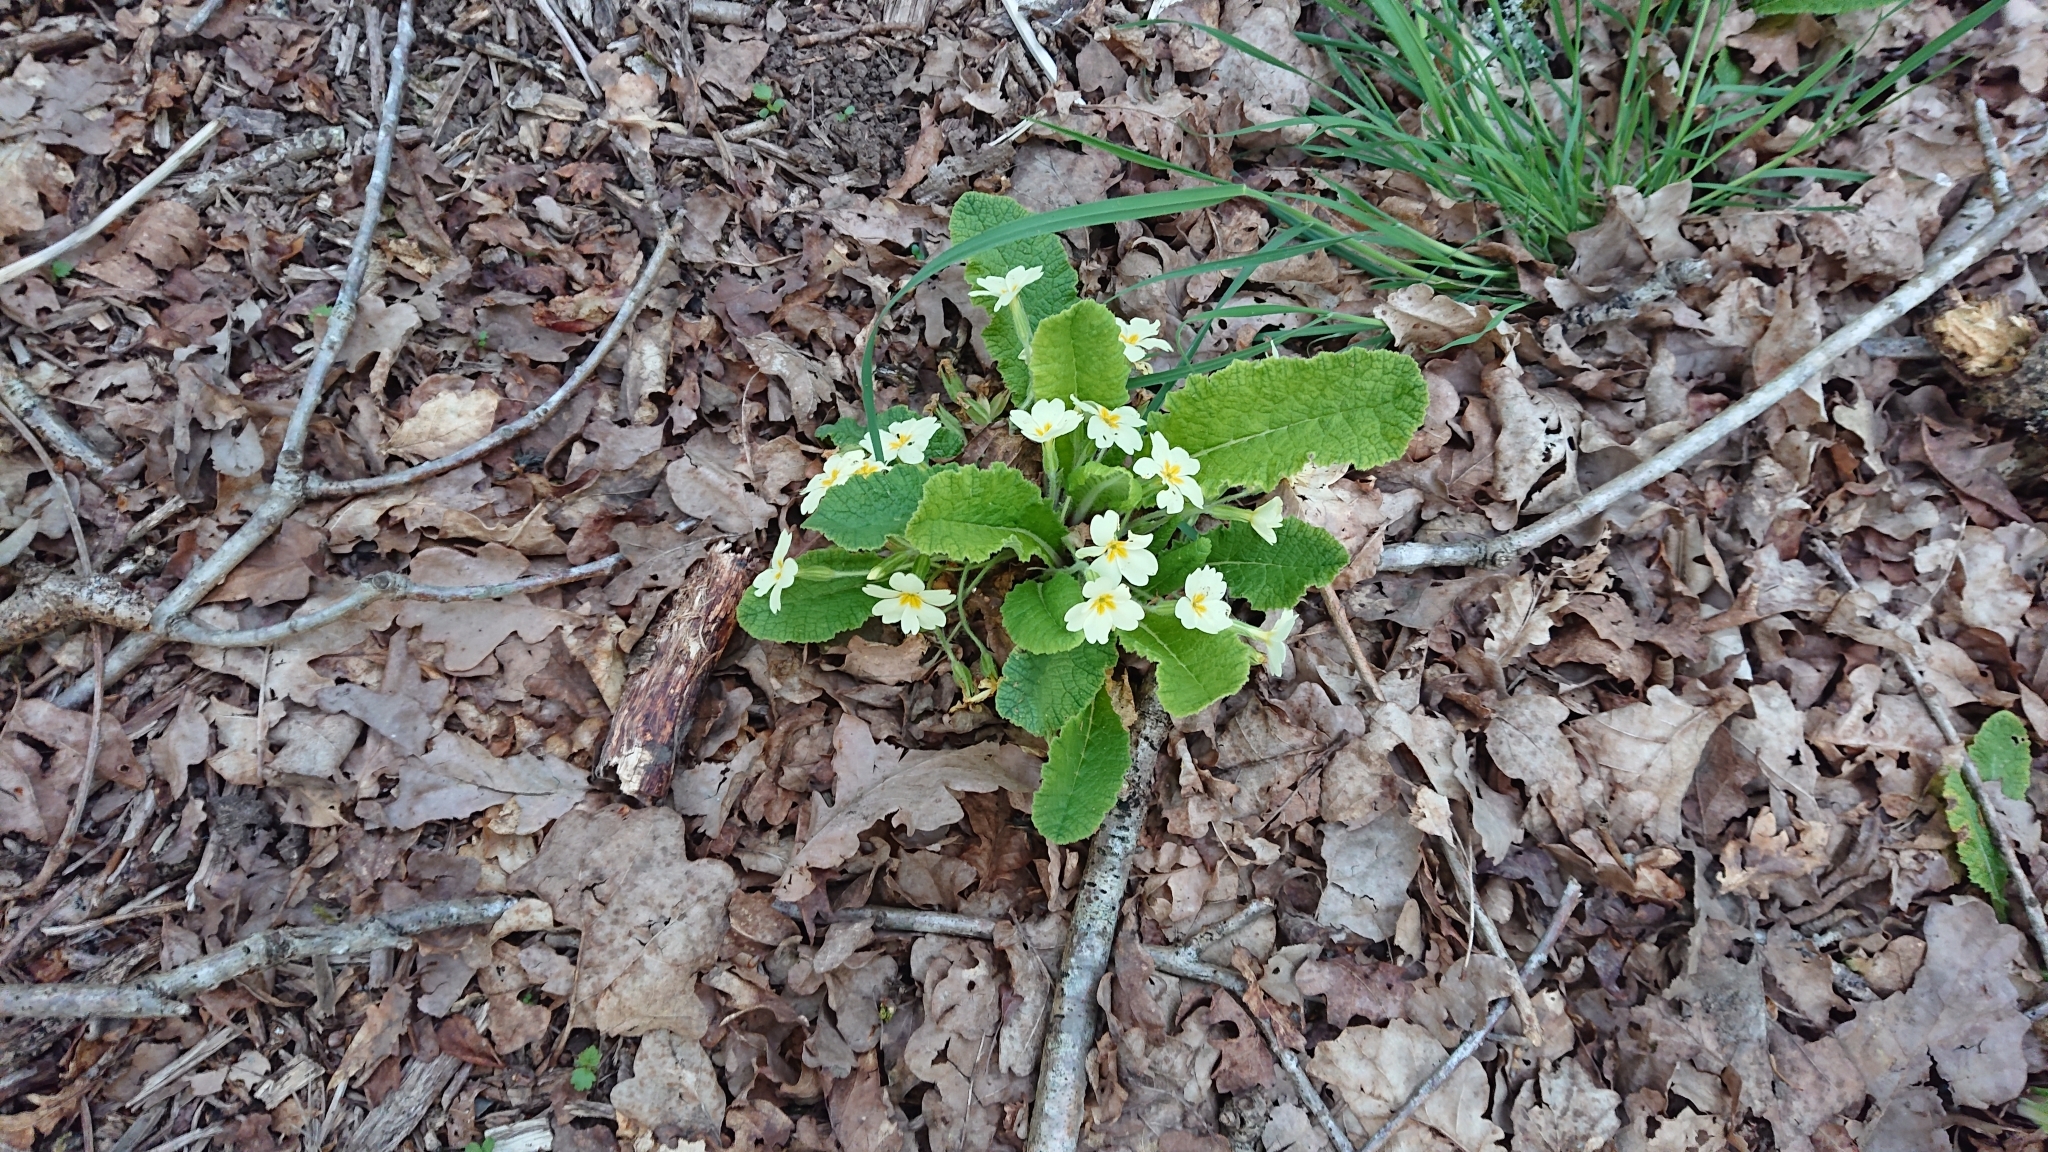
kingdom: Plantae
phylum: Tracheophyta
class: Magnoliopsida
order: Ericales
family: Primulaceae
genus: Primula
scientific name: Primula vulgaris
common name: Primrose
